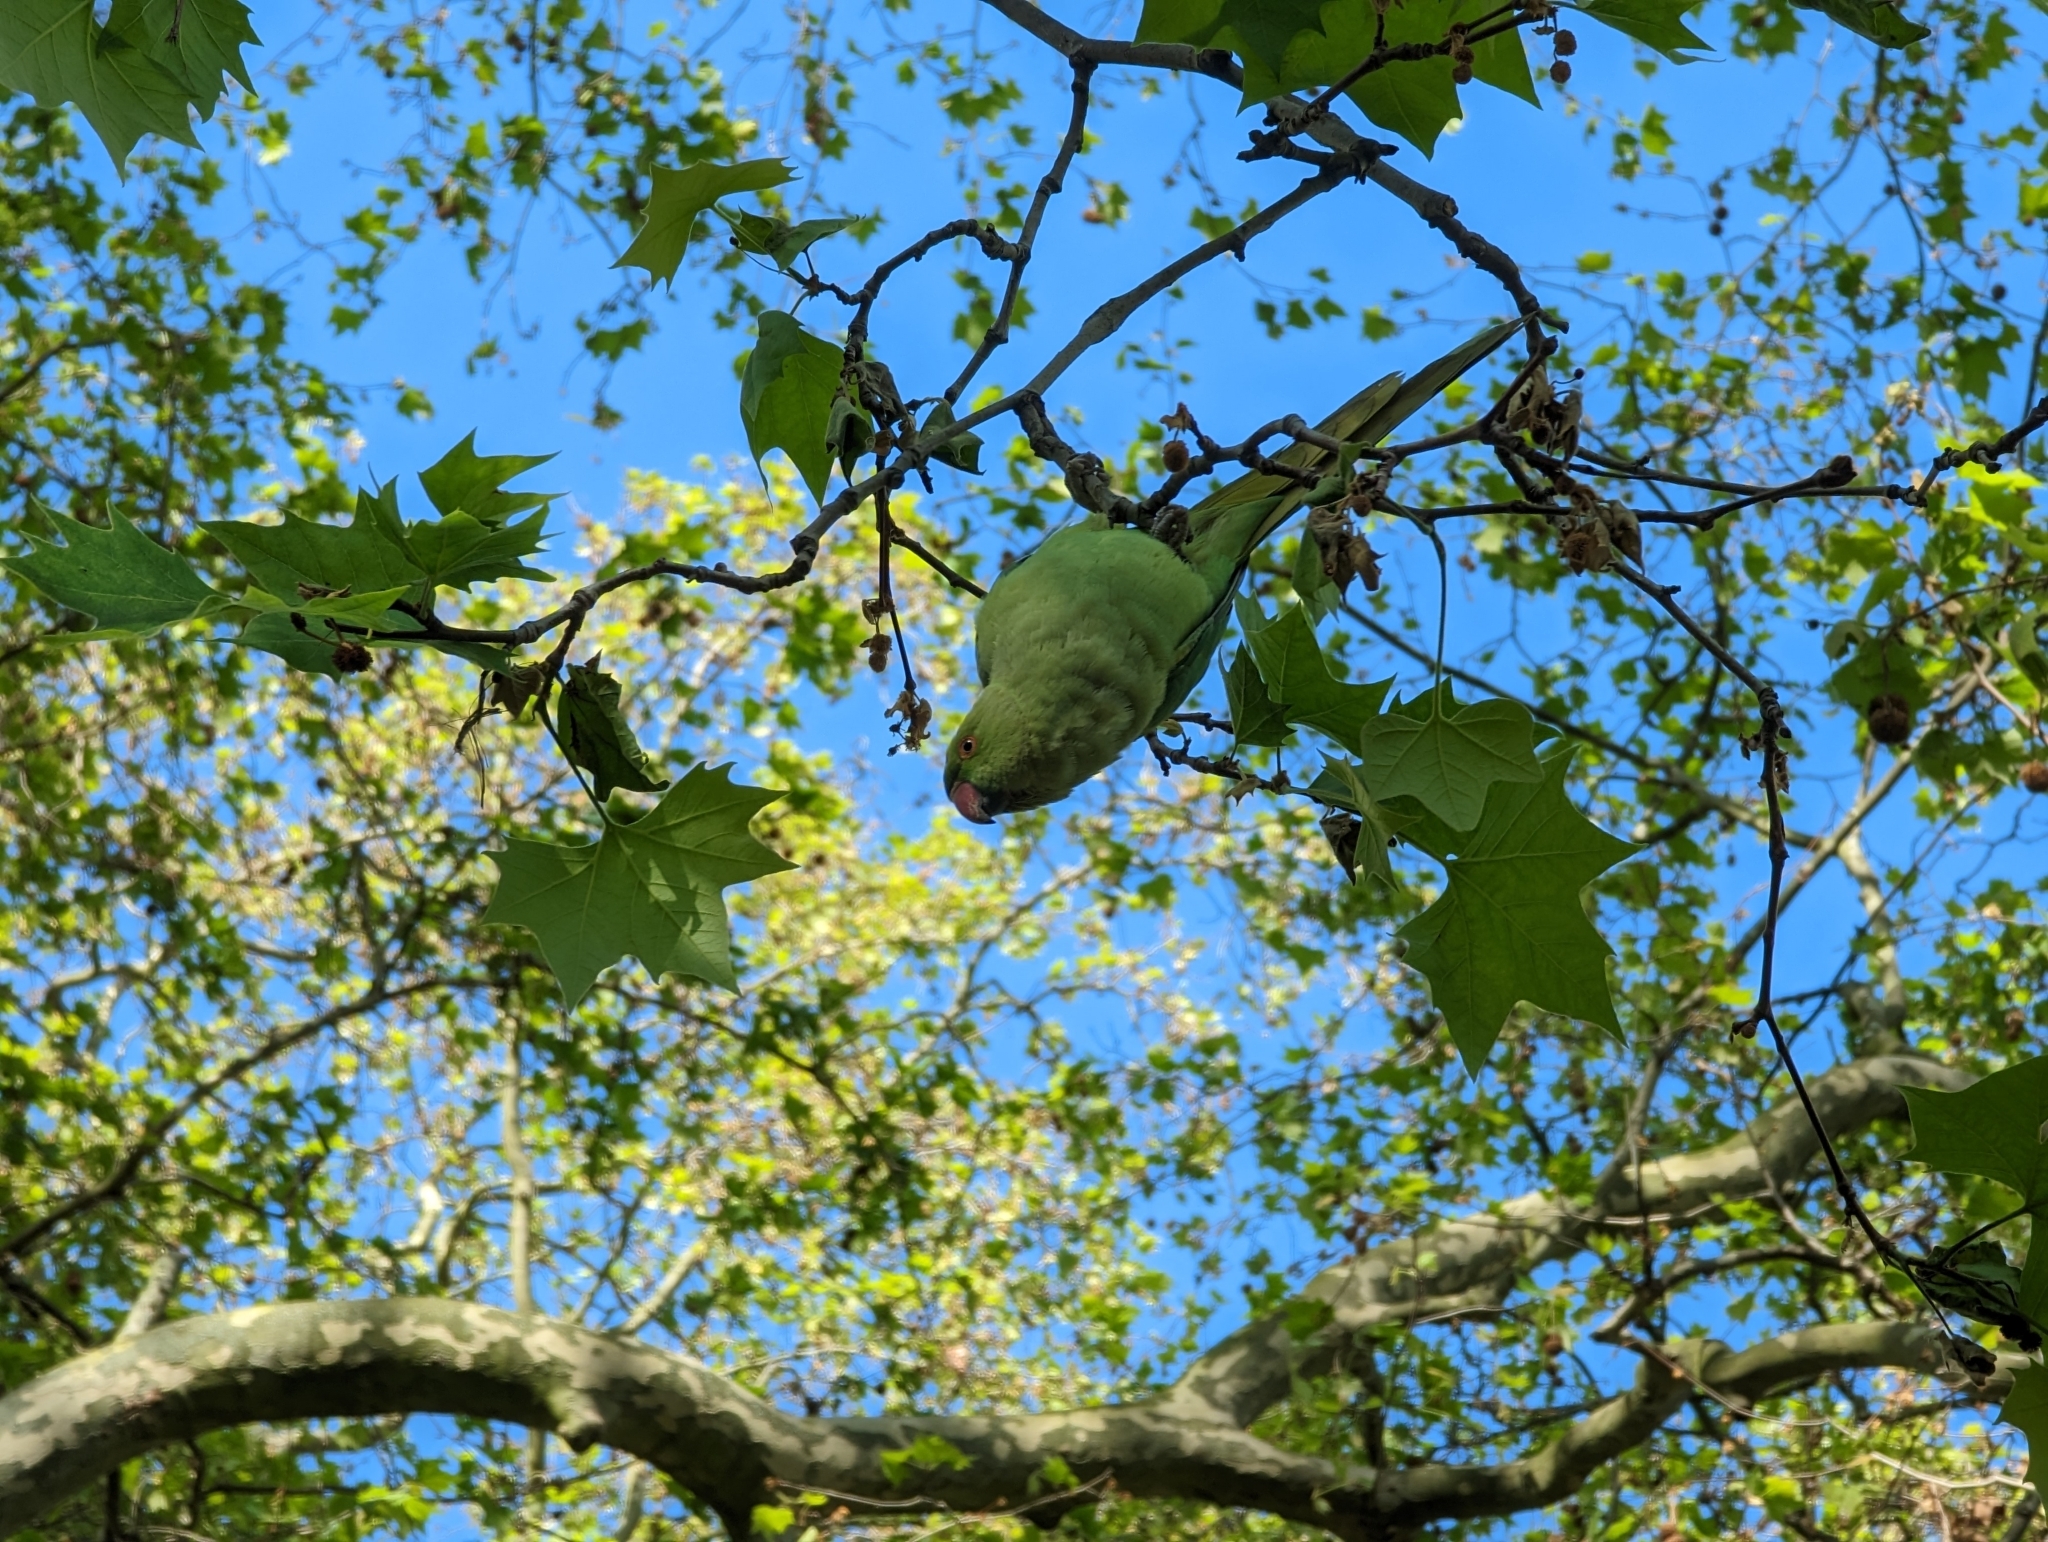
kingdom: Animalia
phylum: Chordata
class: Aves
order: Psittaciformes
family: Psittacidae
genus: Psittacula
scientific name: Psittacula krameri
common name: Rose-ringed parakeet
